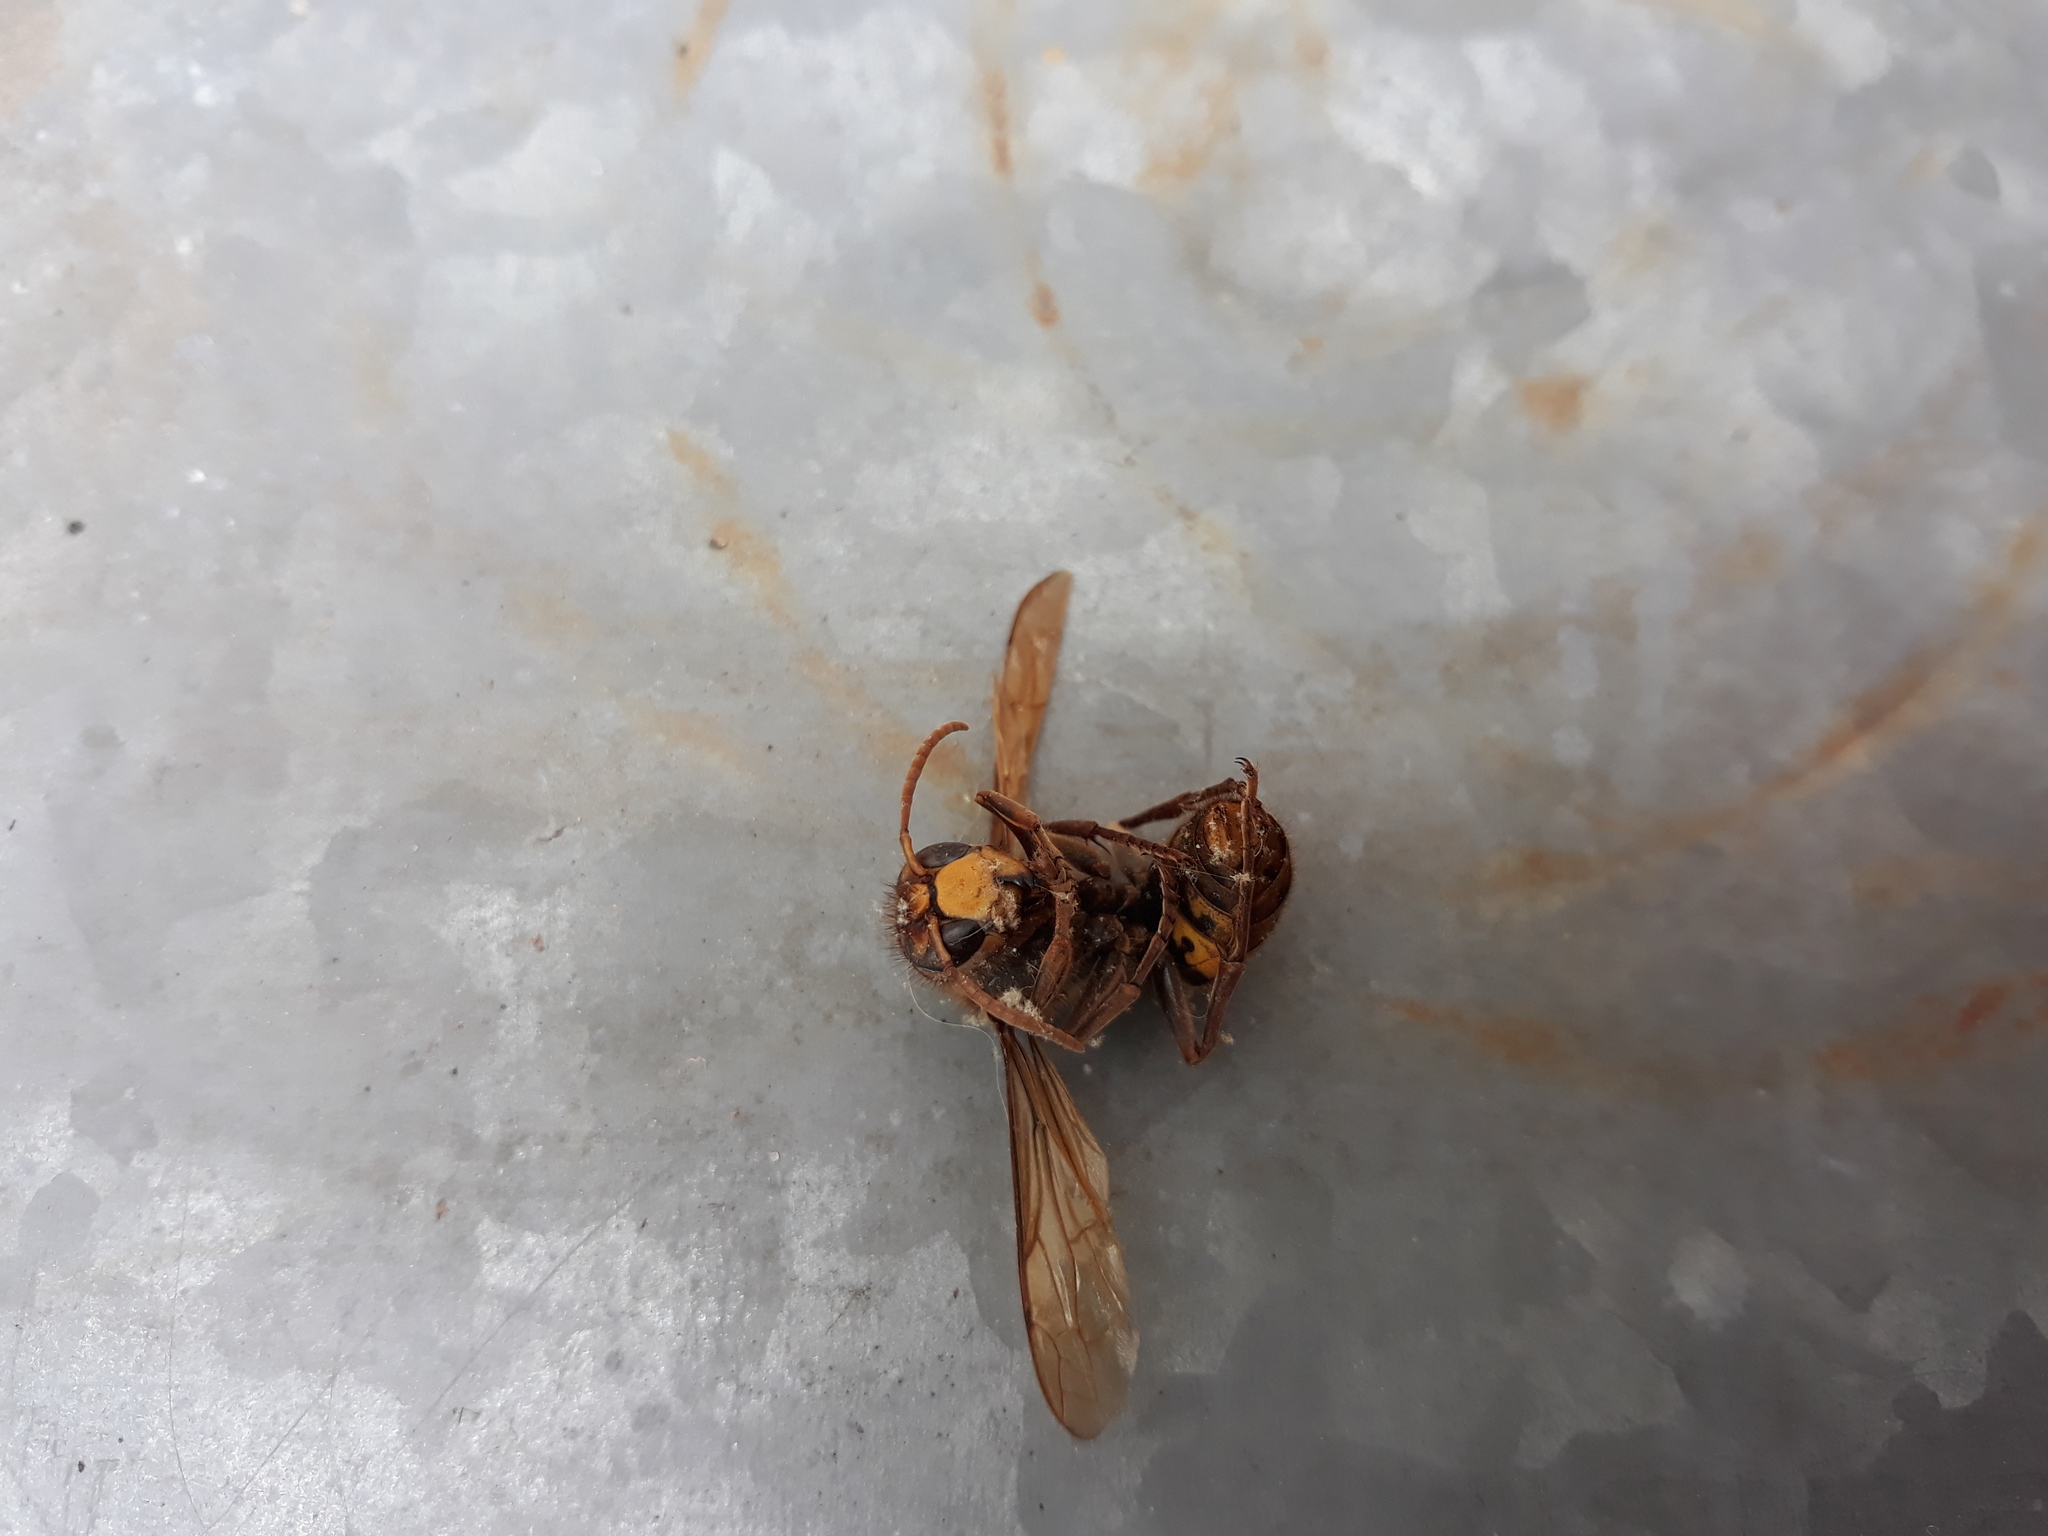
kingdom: Animalia
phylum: Arthropoda
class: Insecta
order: Hymenoptera
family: Vespidae
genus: Vespa
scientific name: Vespa crabro
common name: Hornet
